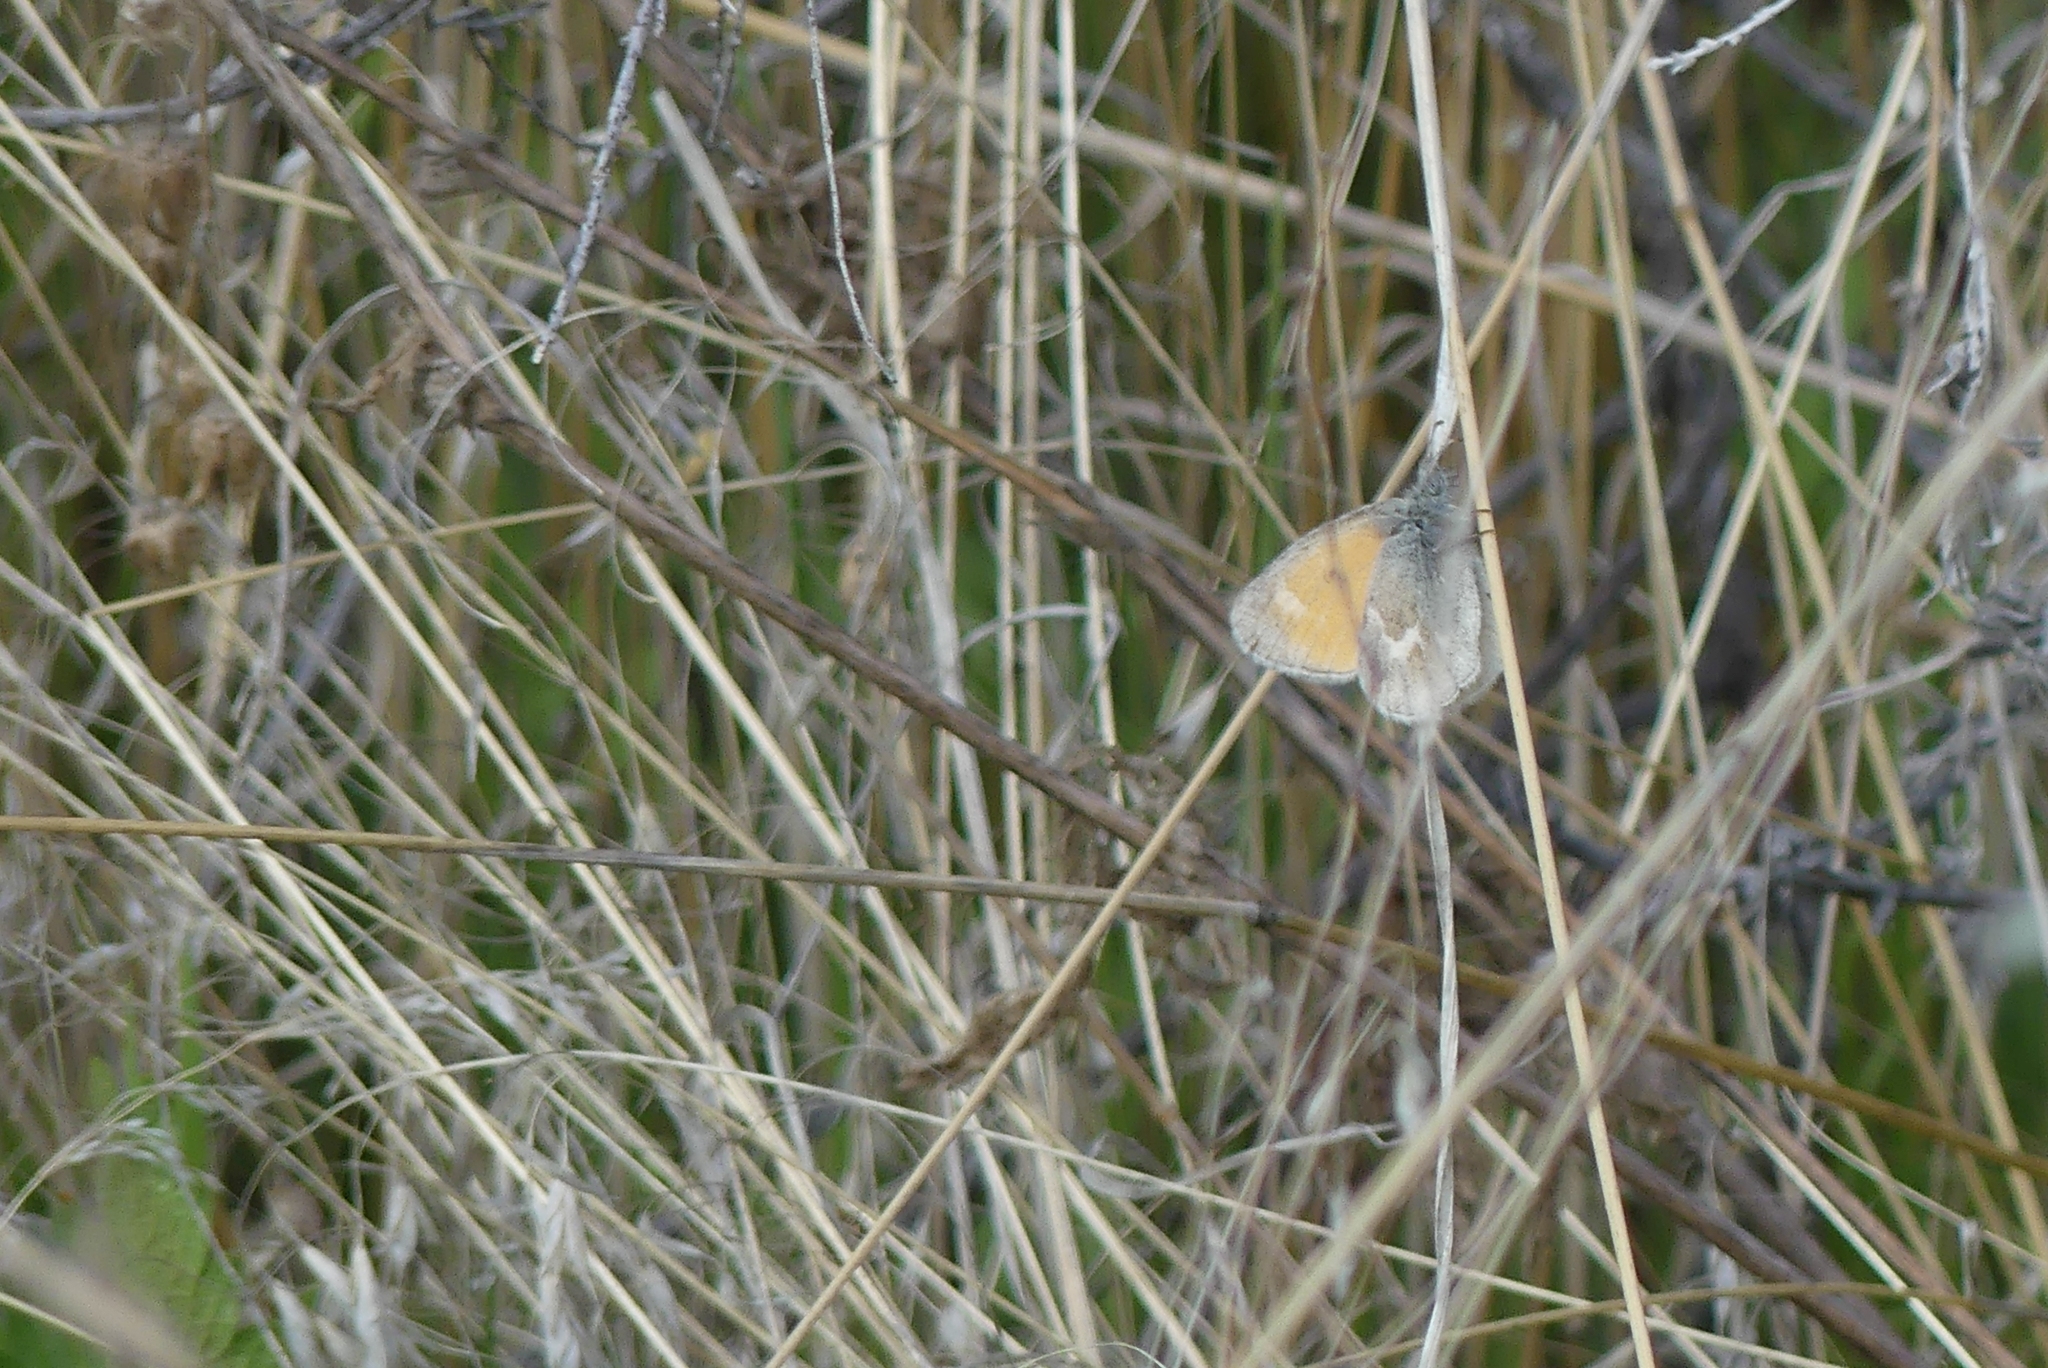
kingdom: Animalia
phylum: Arthropoda
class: Insecta
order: Lepidoptera
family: Nymphalidae
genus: Coenonympha
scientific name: Coenonympha california
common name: Common ringlet
